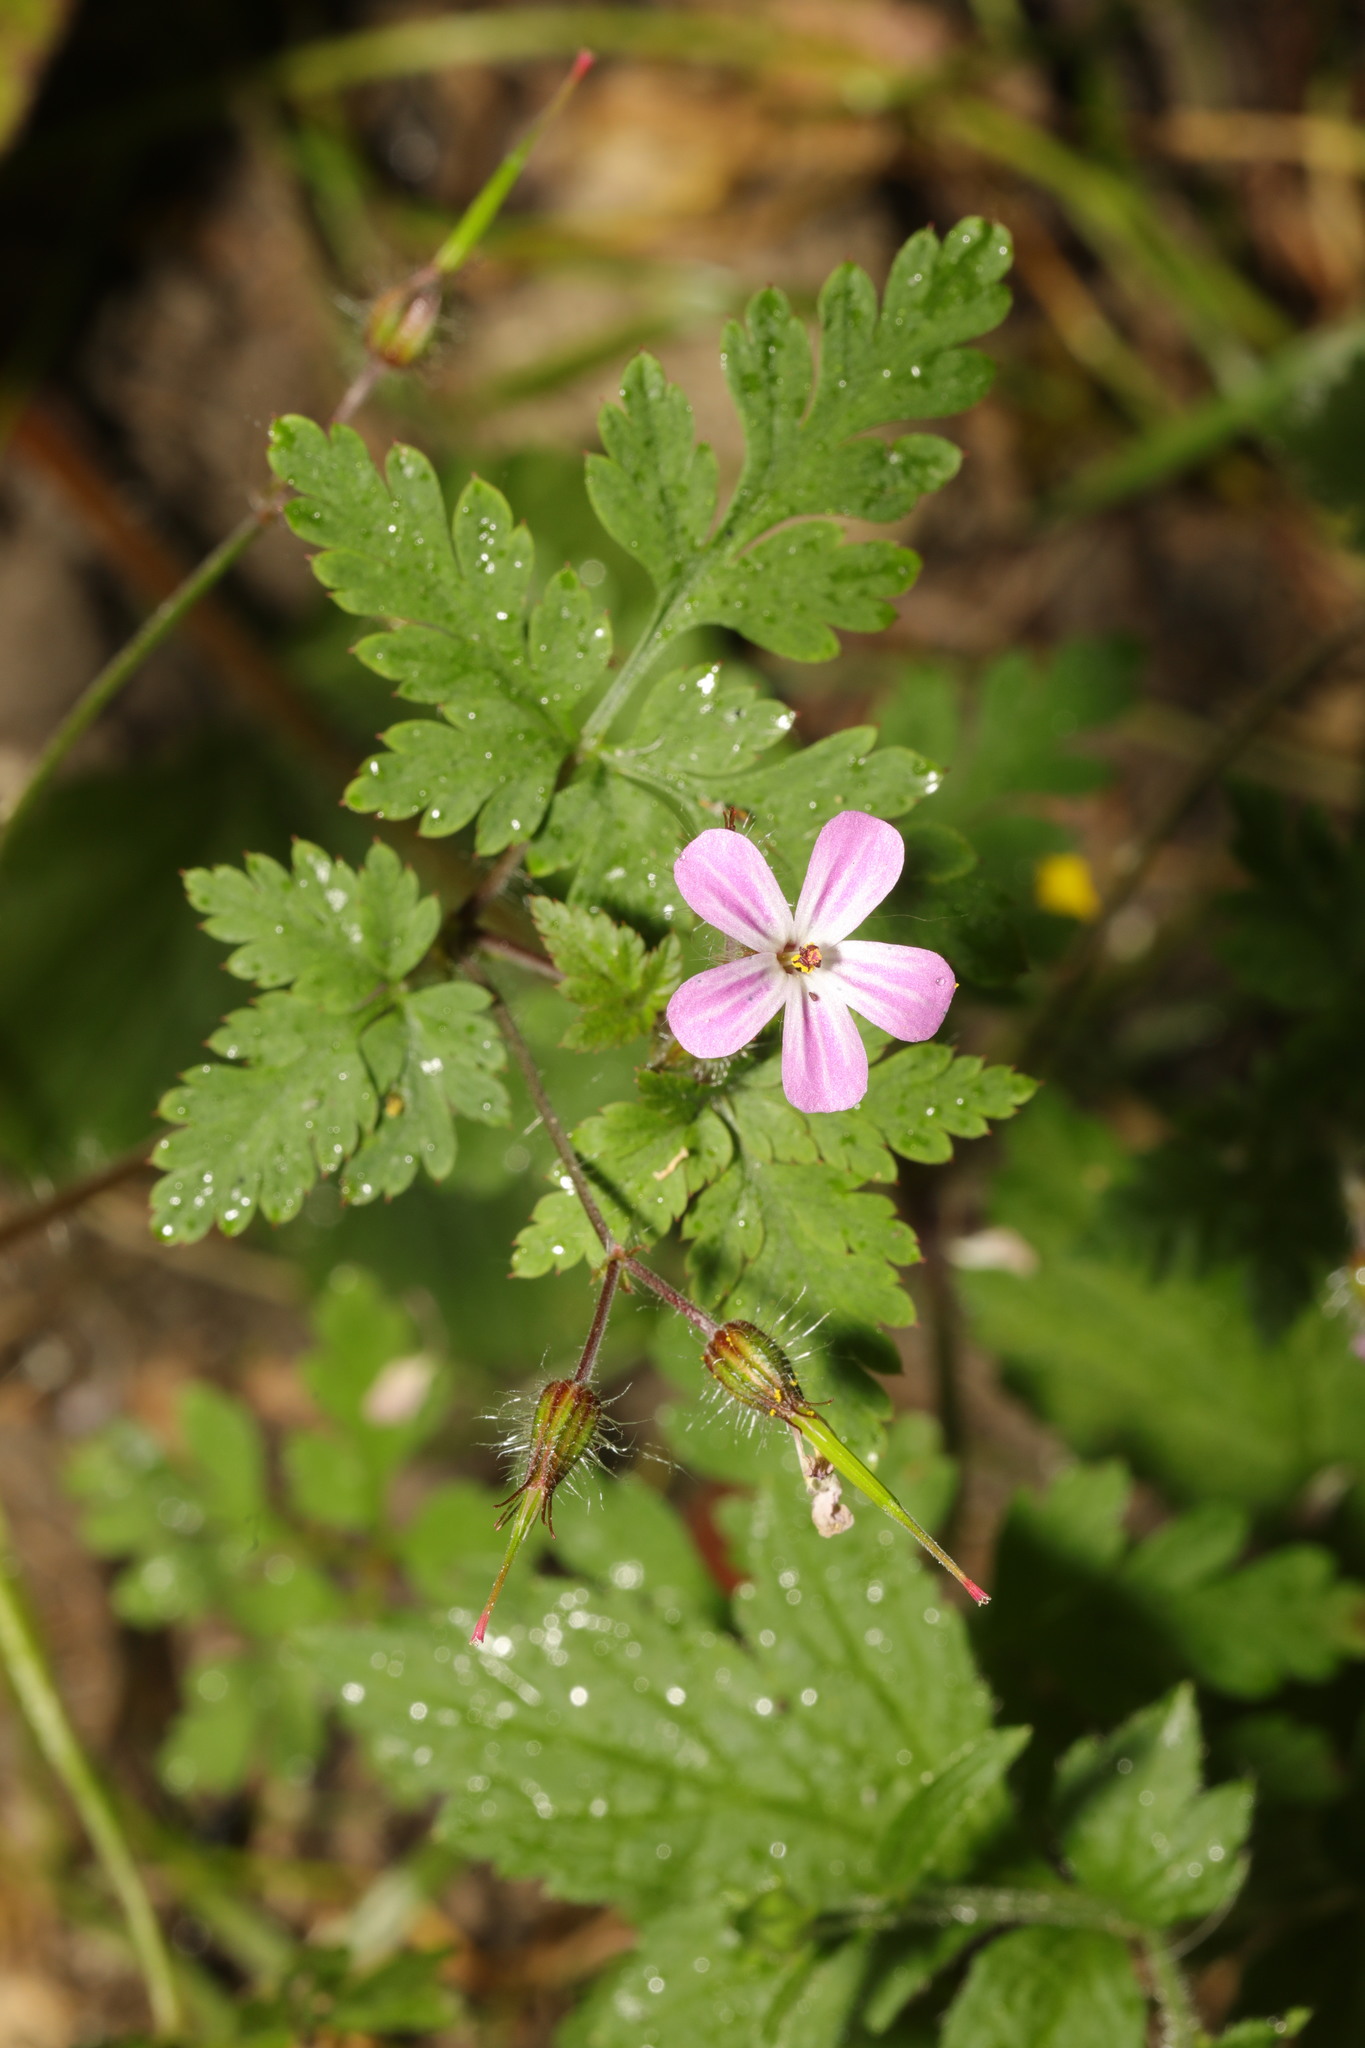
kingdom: Plantae
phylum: Tracheophyta
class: Magnoliopsida
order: Geraniales
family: Geraniaceae
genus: Geranium
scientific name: Geranium robertianum
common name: Herb-robert
